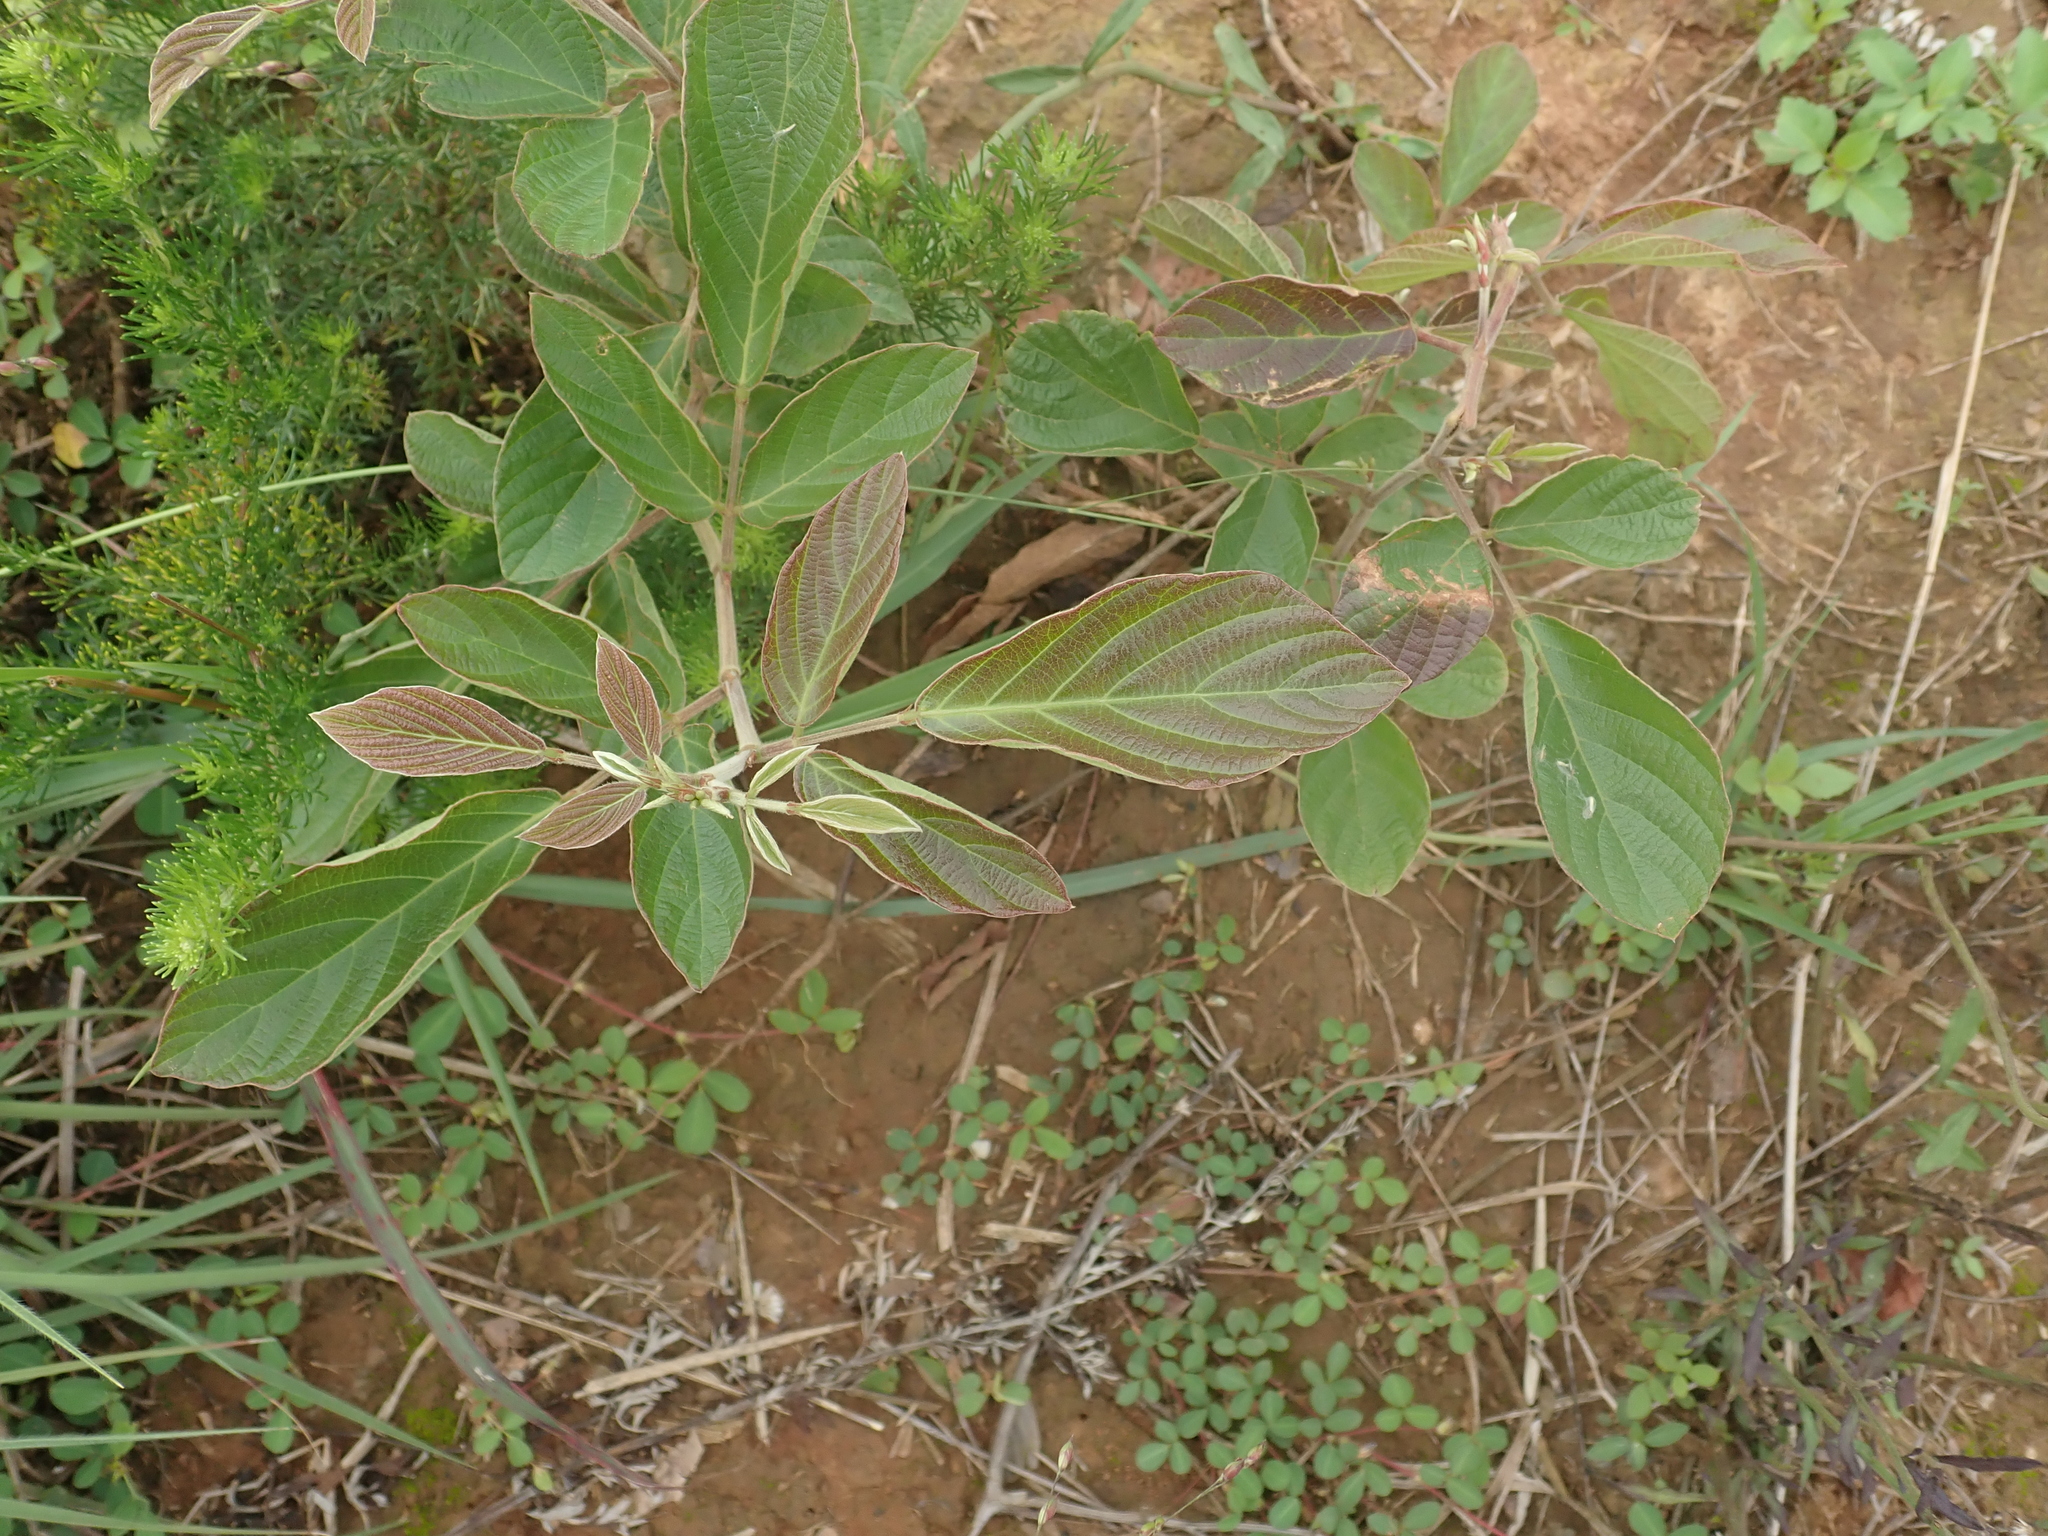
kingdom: Plantae
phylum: Tracheophyta
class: Magnoliopsida
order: Fabales
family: Fabaceae
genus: Phyllodium
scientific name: Phyllodium pulchellum
